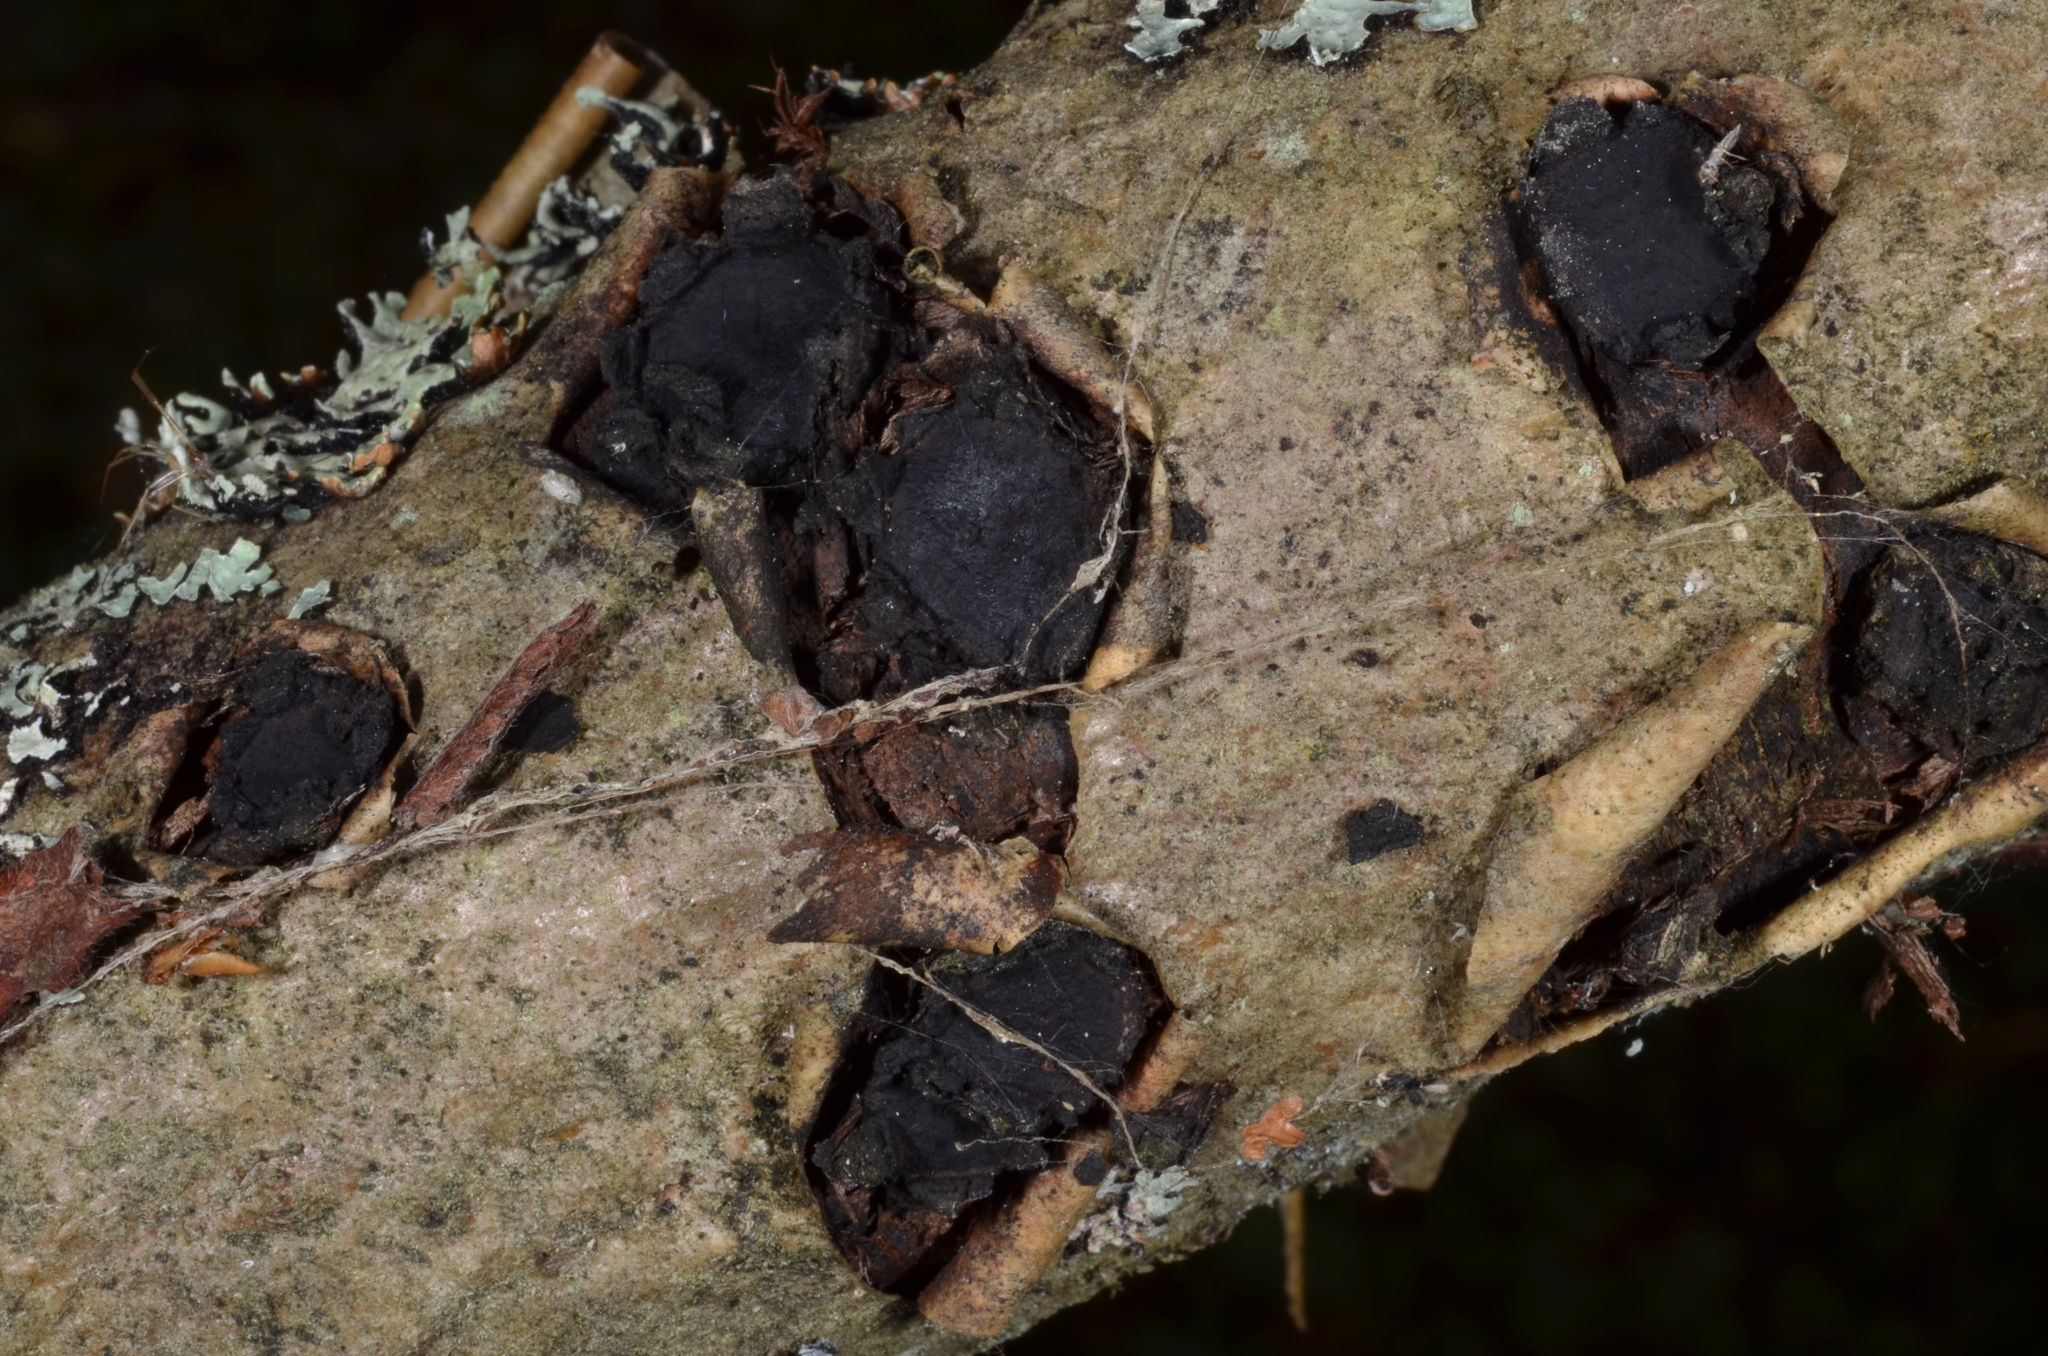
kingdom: Fungi
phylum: Ascomycota
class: Sordariomycetes
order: Xylariales
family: Graphostromataceae
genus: Biscogniauxia
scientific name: Biscogniauxia repanda
